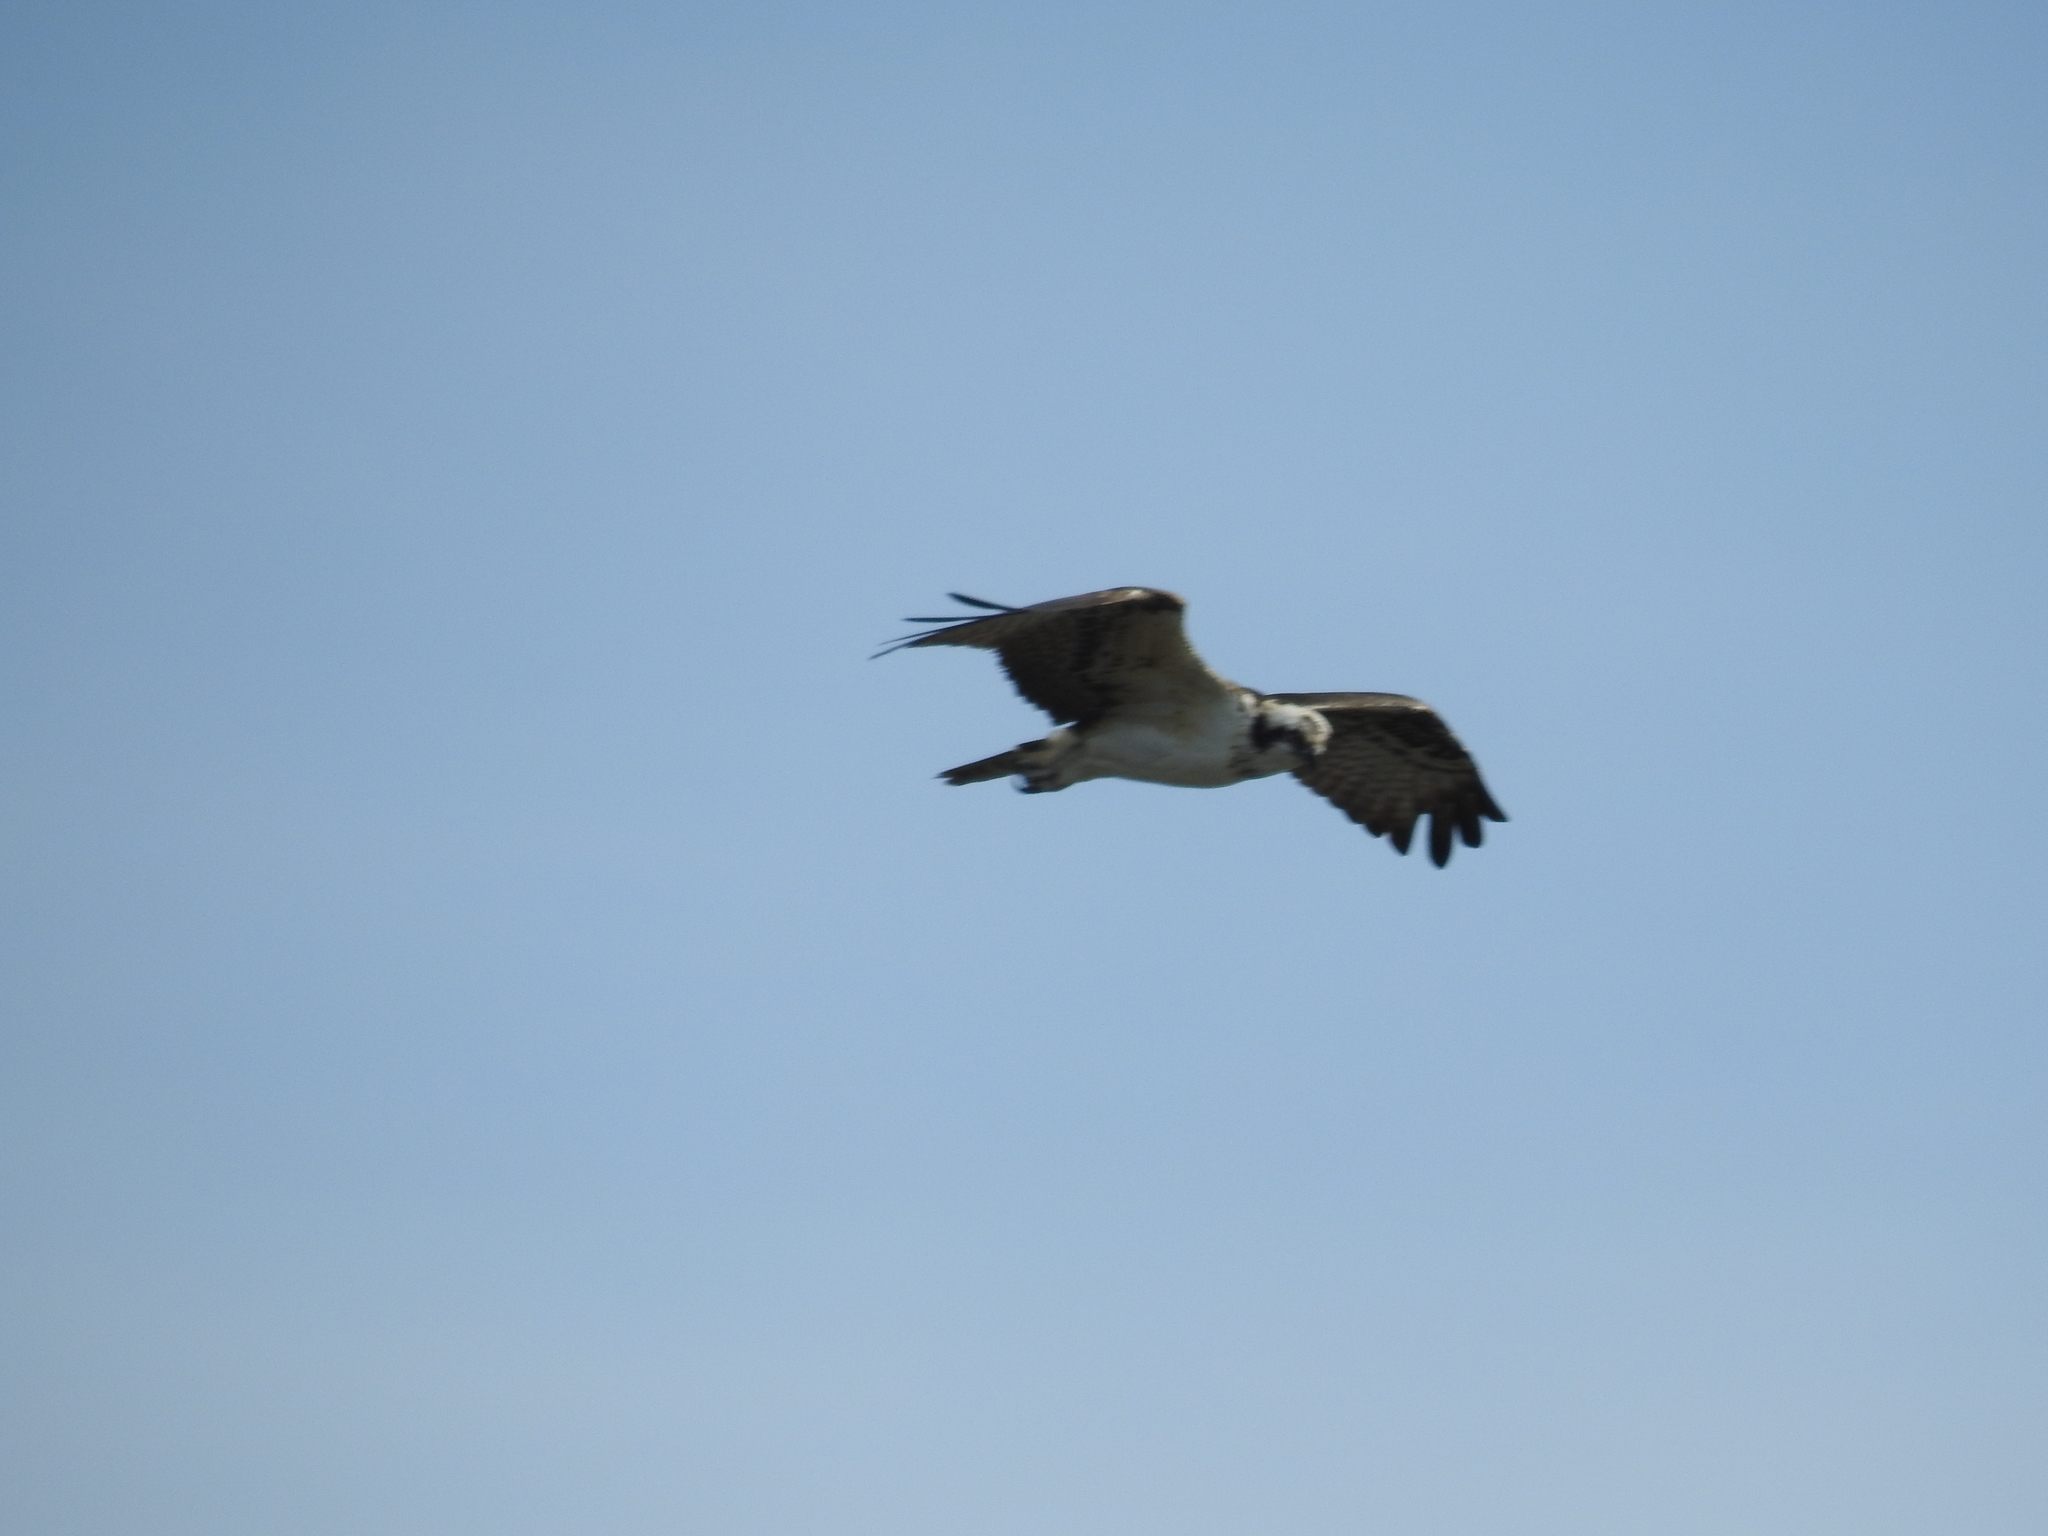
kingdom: Animalia
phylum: Chordata
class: Aves
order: Accipitriformes
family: Pandionidae
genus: Pandion
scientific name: Pandion haliaetus
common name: Osprey
